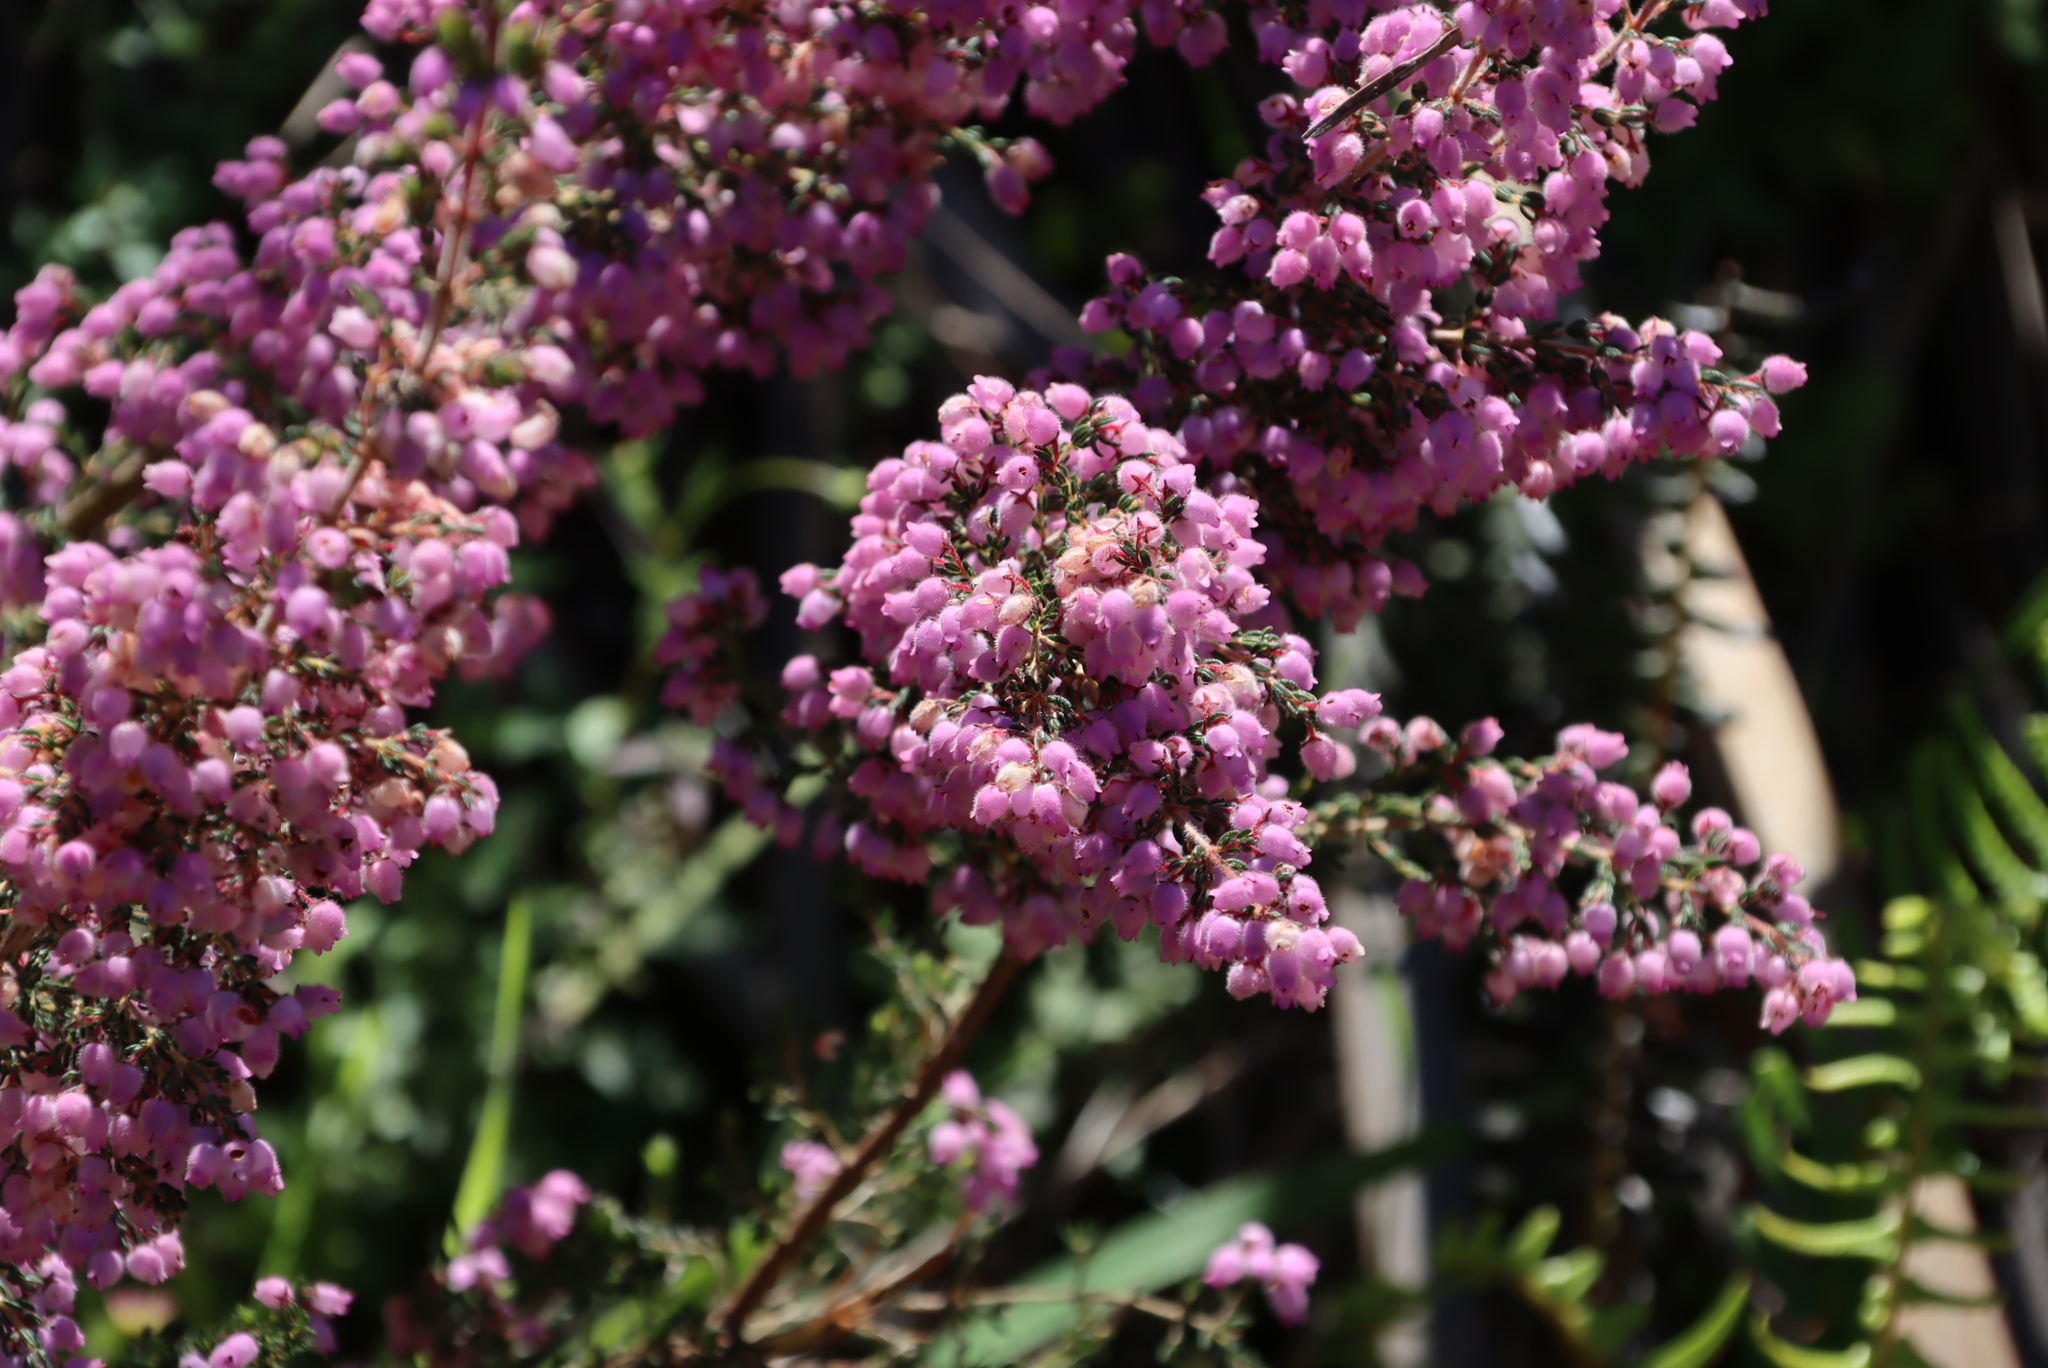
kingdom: Plantae
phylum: Tracheophyta
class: Magnoliopsida
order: Ericales
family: Ericaceae
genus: Erica
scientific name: Erica hirtiflora
